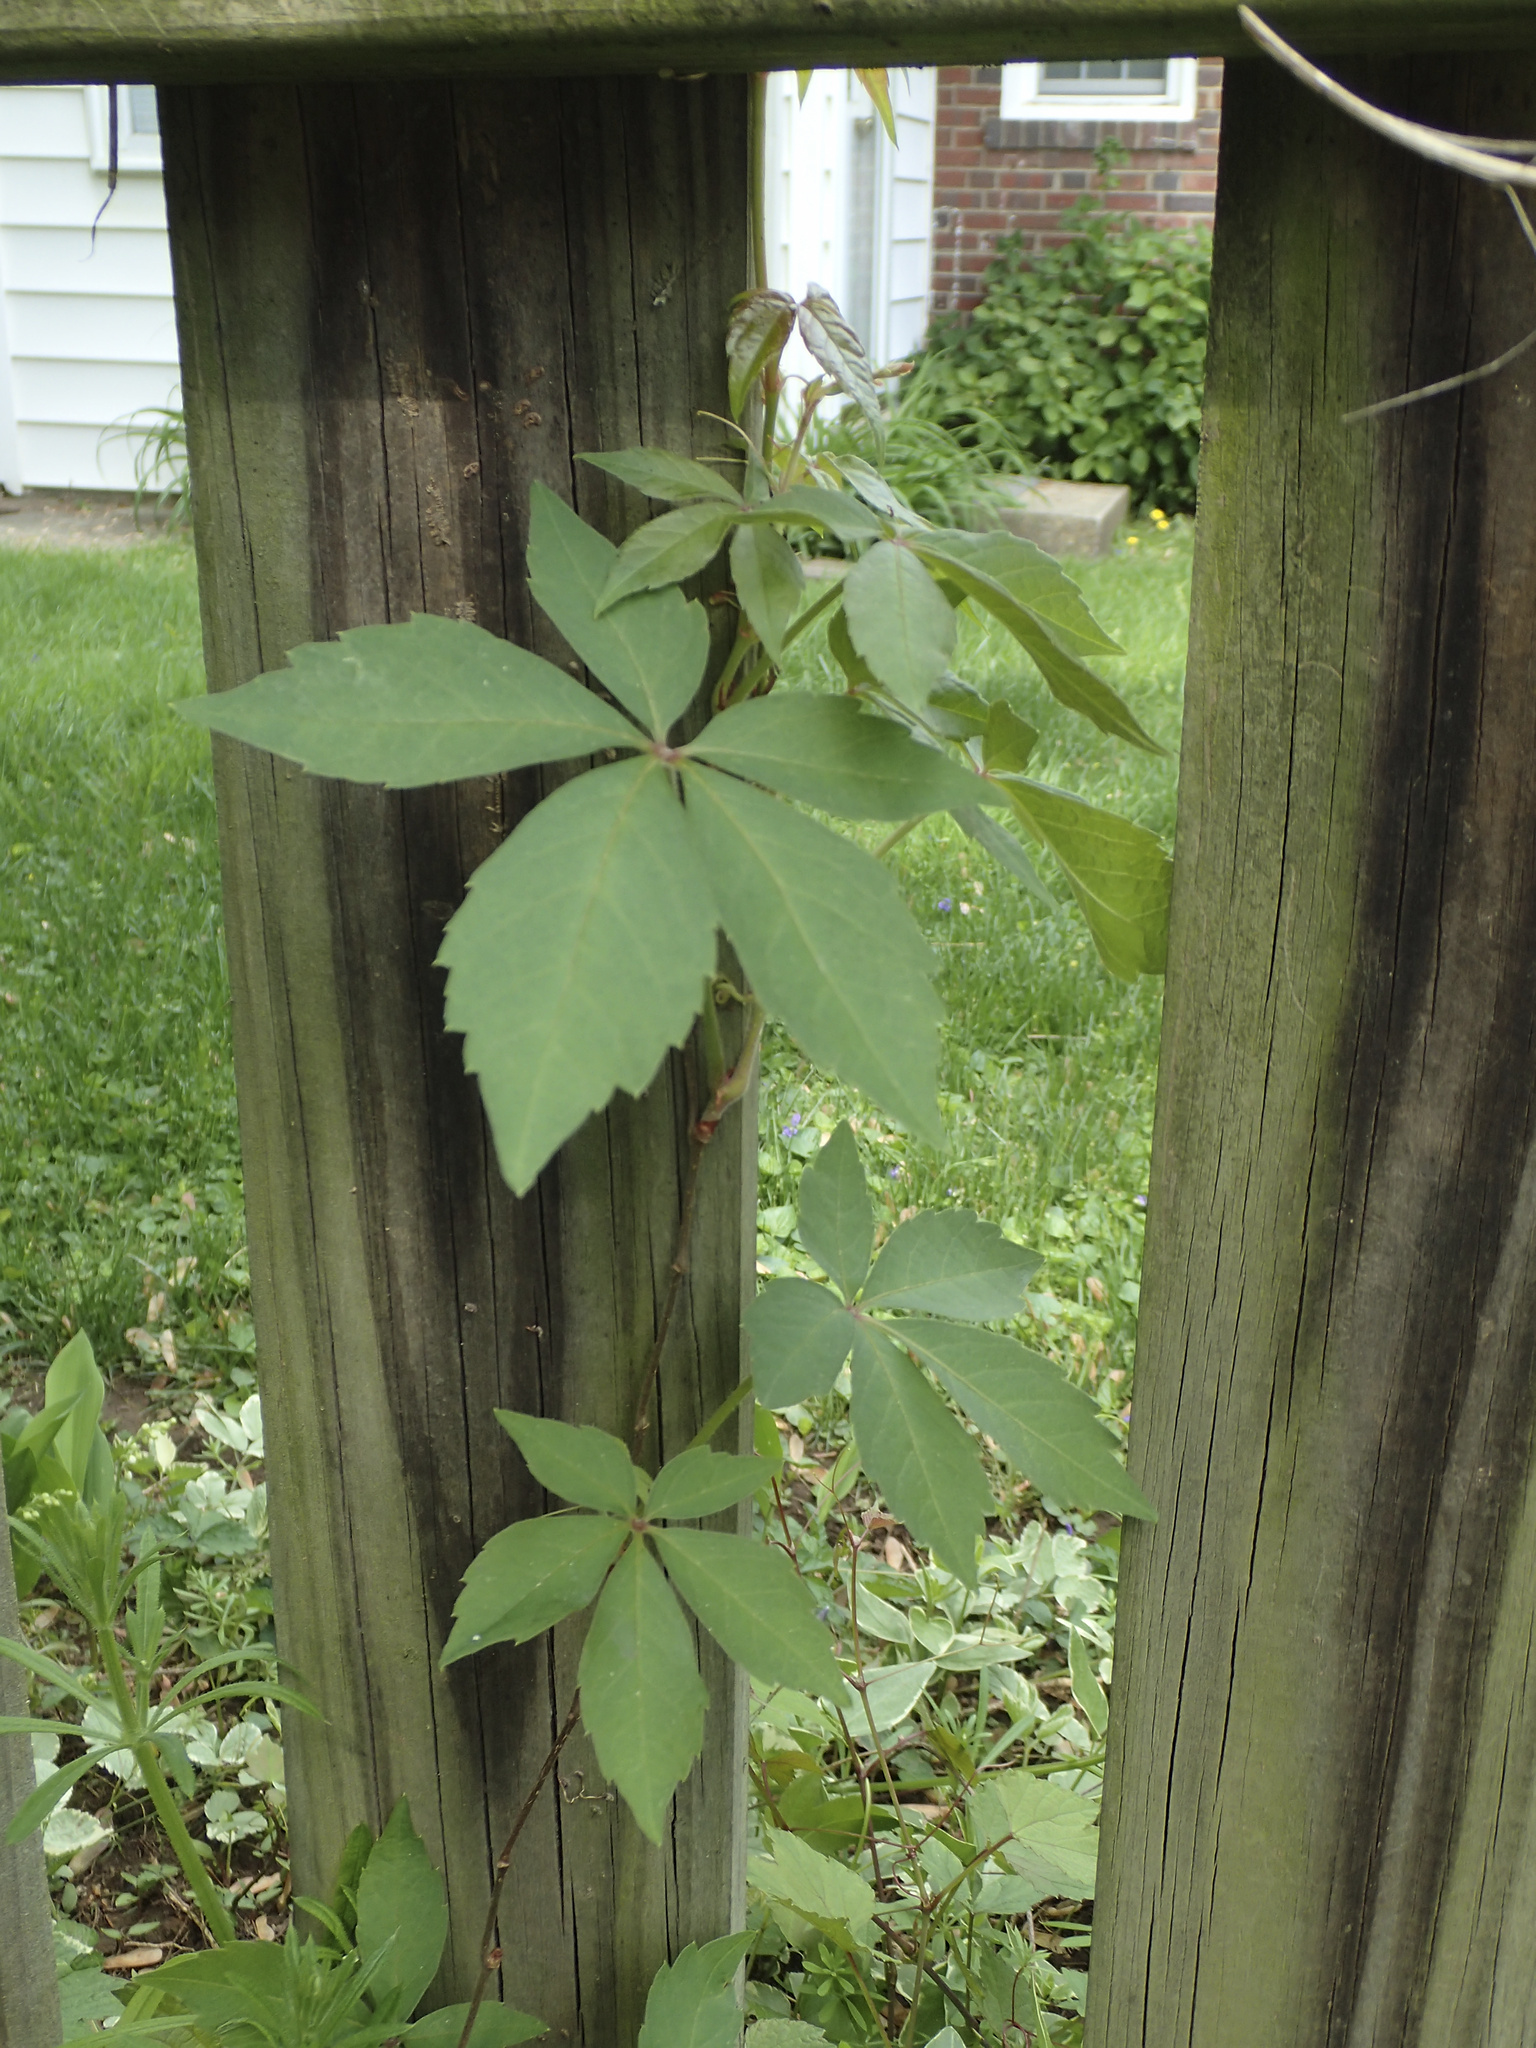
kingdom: Plantae
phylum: Tracheophyta
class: Magnoliopsida
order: Vitales
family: Vitaceae
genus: Parthenocissus
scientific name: Parthenocissus quinquefolia
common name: Virginia-creeper
